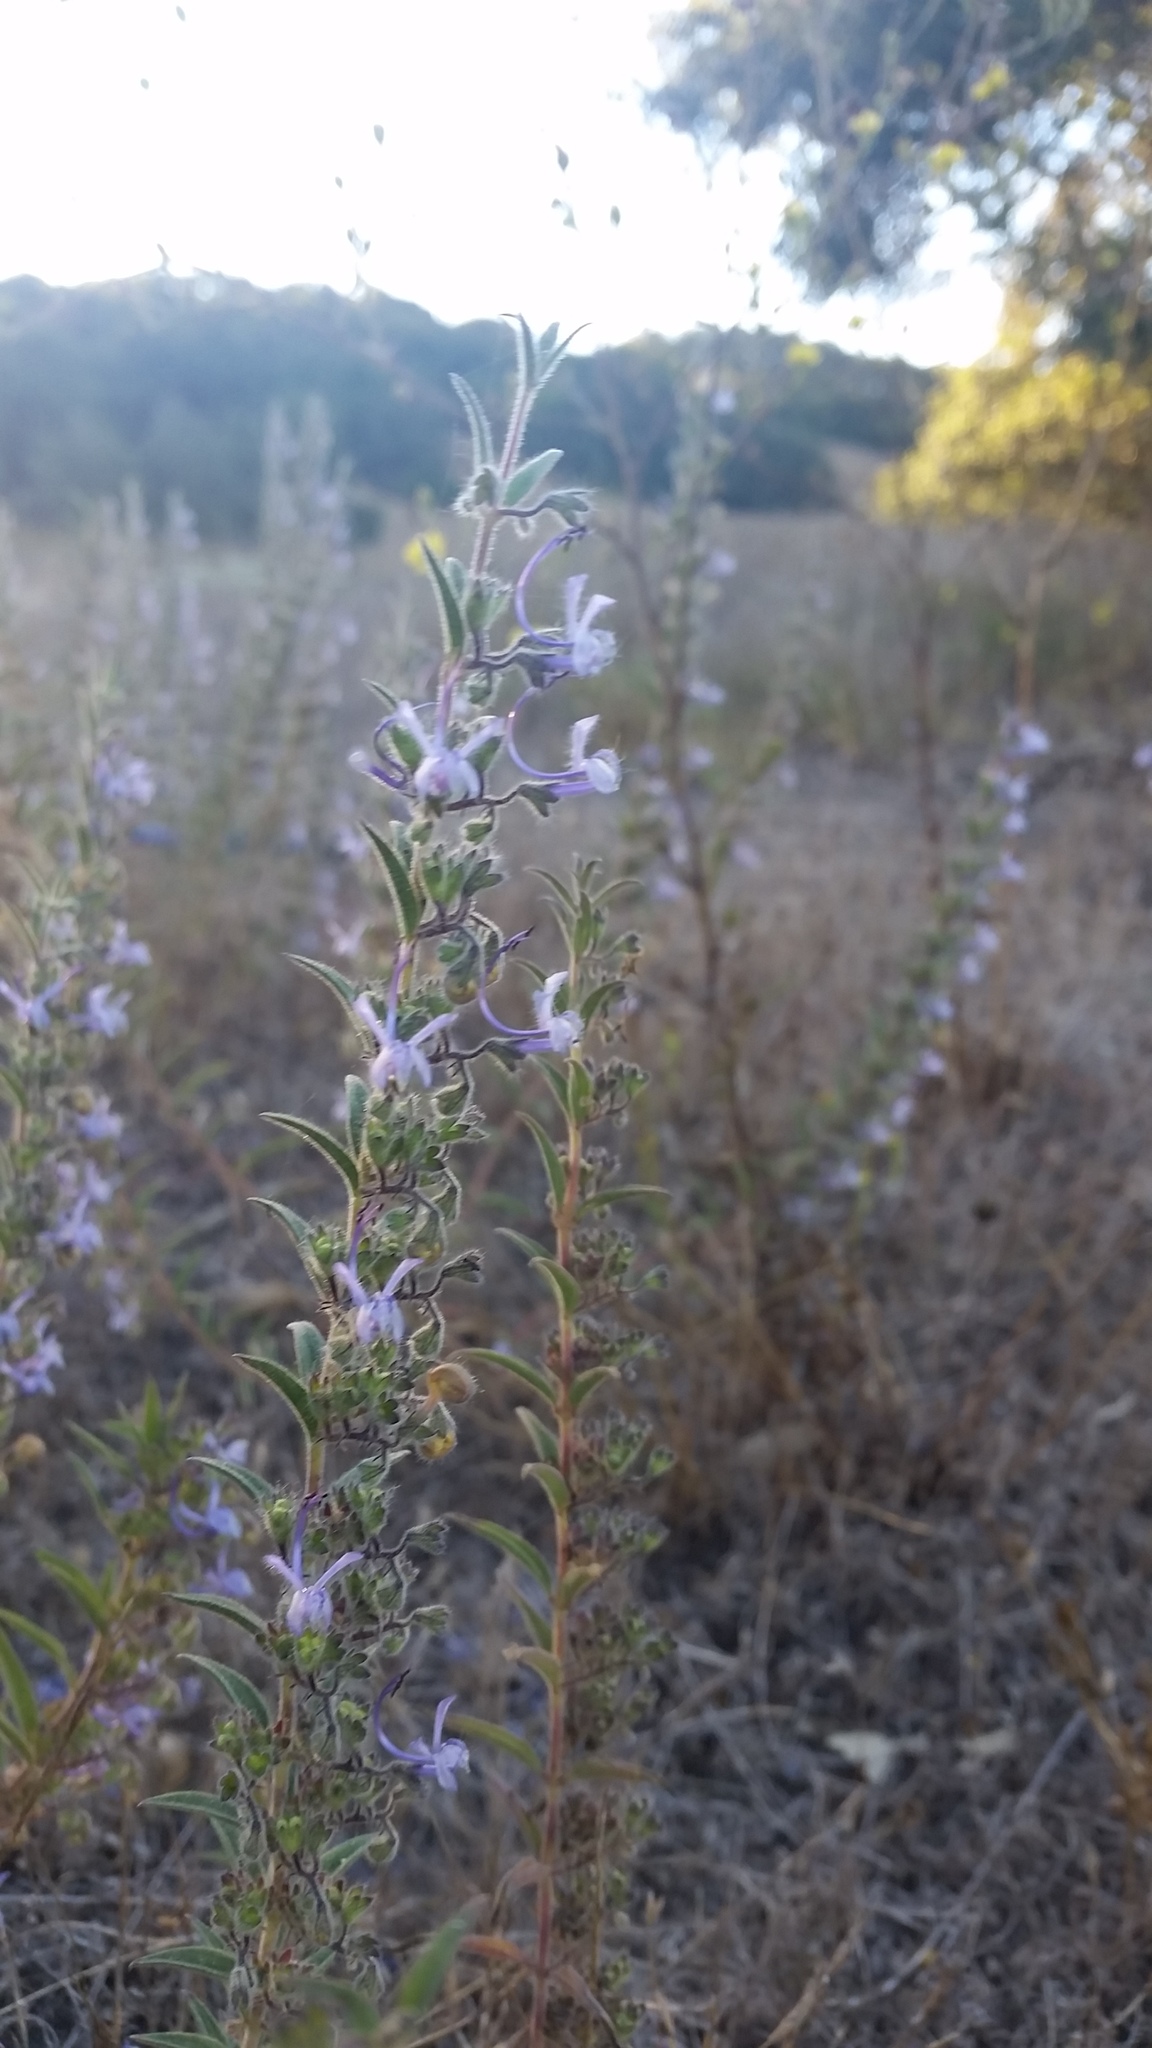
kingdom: Plantae
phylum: Tracheophyta
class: Magnoliopsida
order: Lamiales
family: Lamiaceae
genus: Trichostema
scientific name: Trichostema lanceolatum
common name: Vinegar-weed
